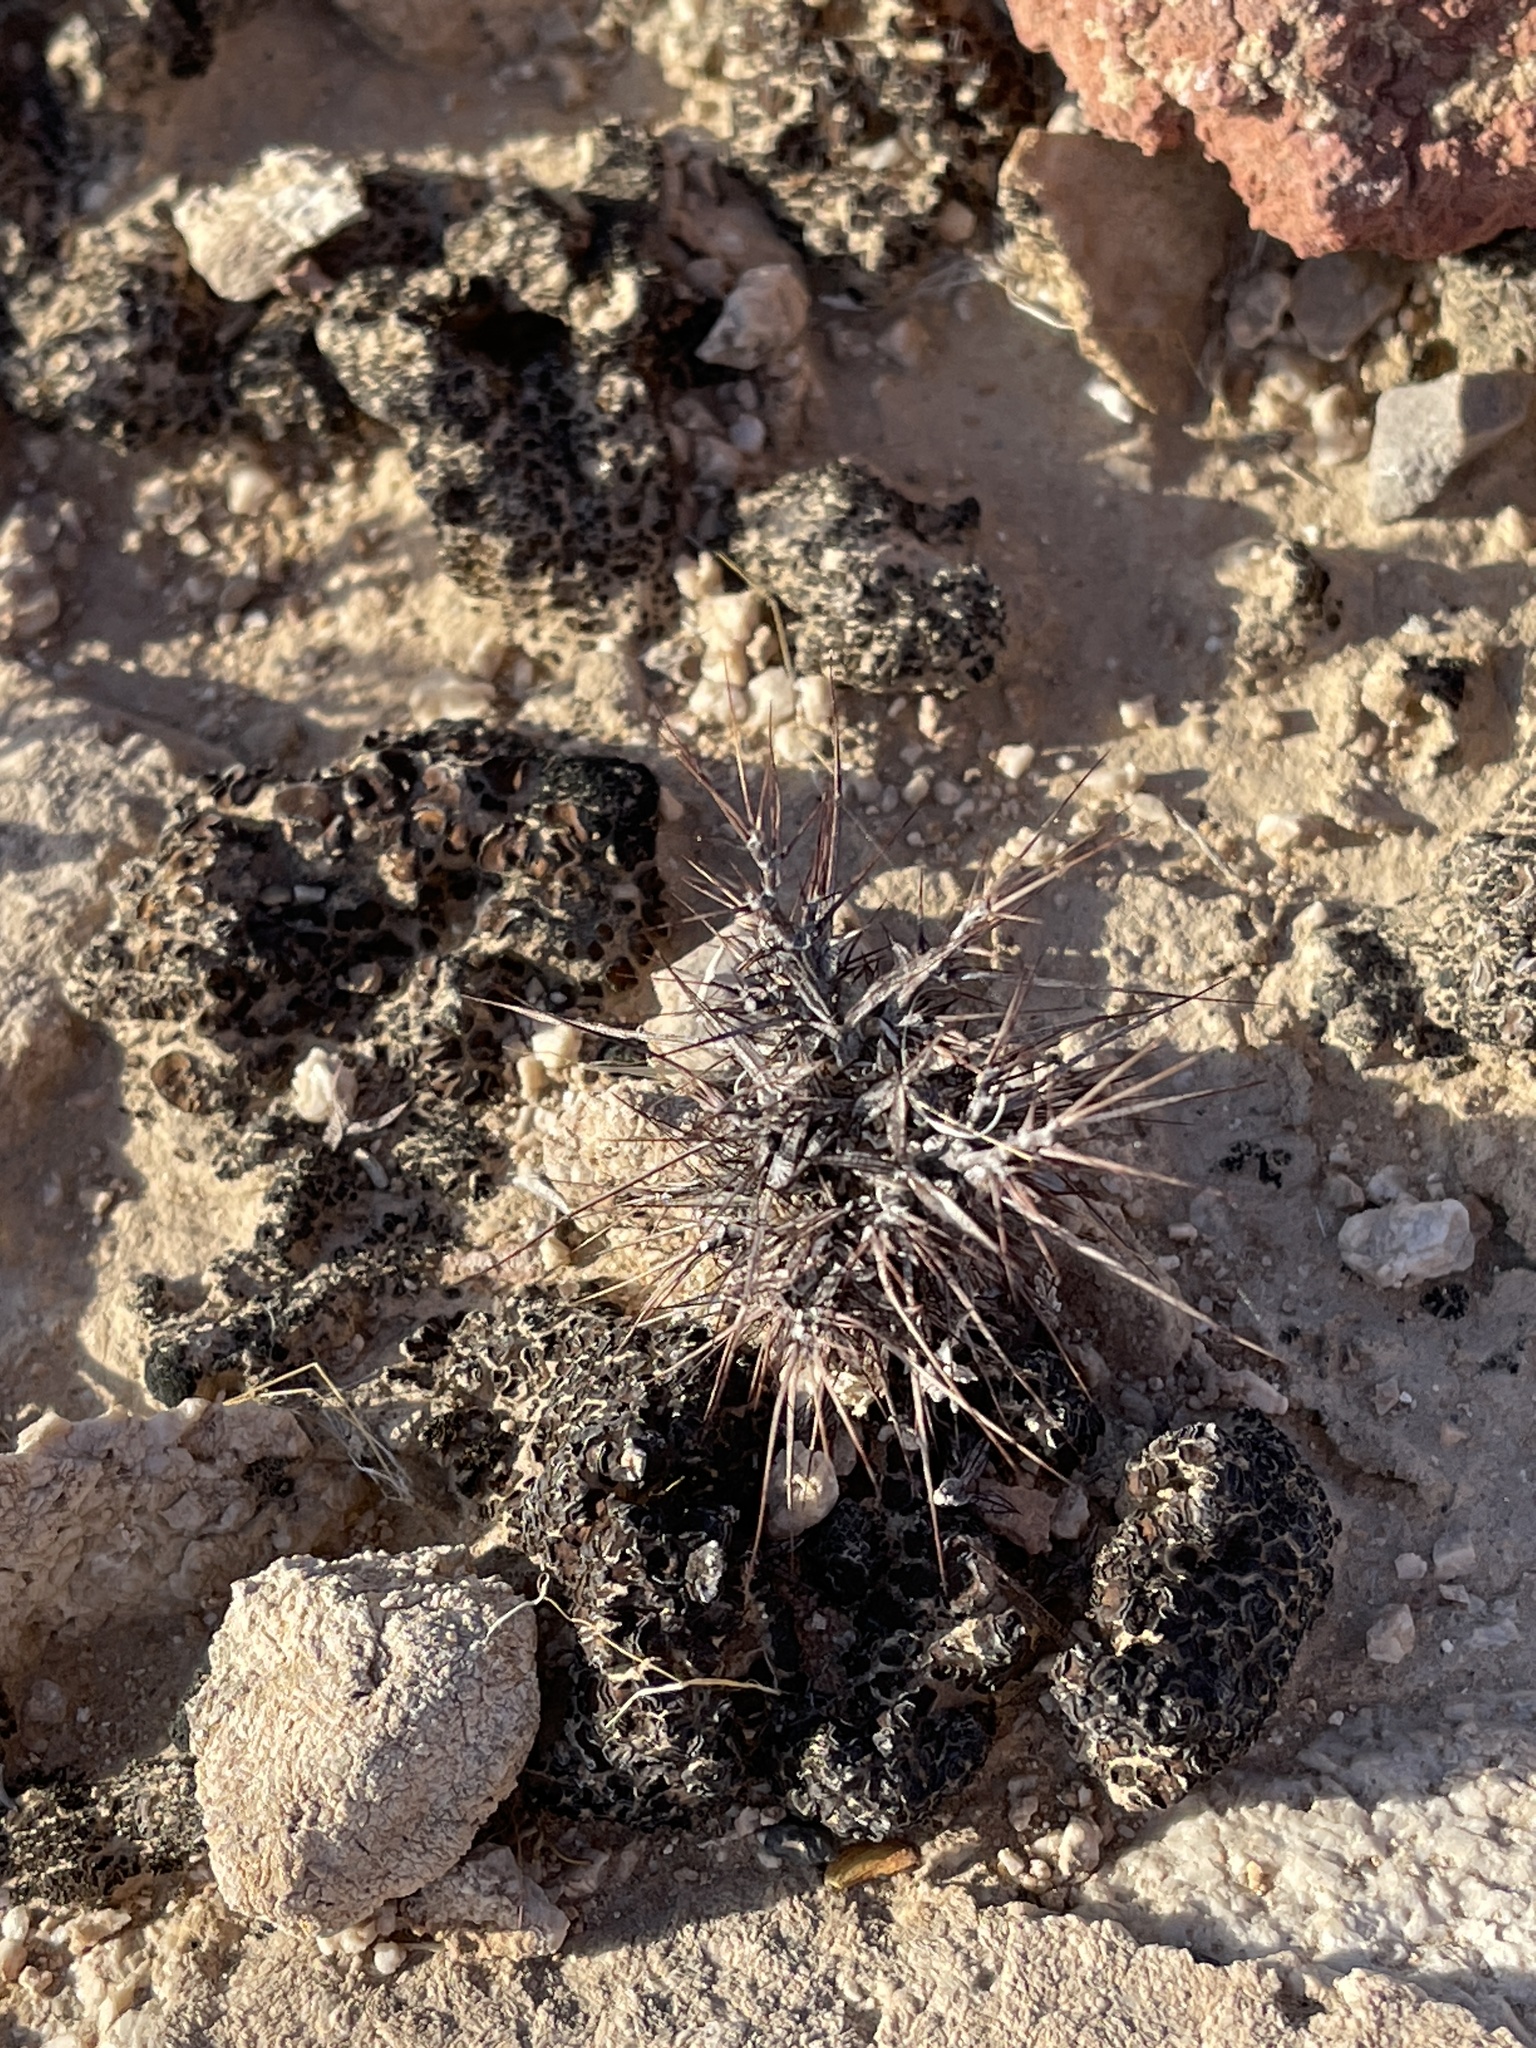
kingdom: Plantae
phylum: Tracheophyta
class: Magnoliopsida
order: Caryophyllales
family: Polygonaceae
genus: Chorizanthe
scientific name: Chorizanthe rigida
